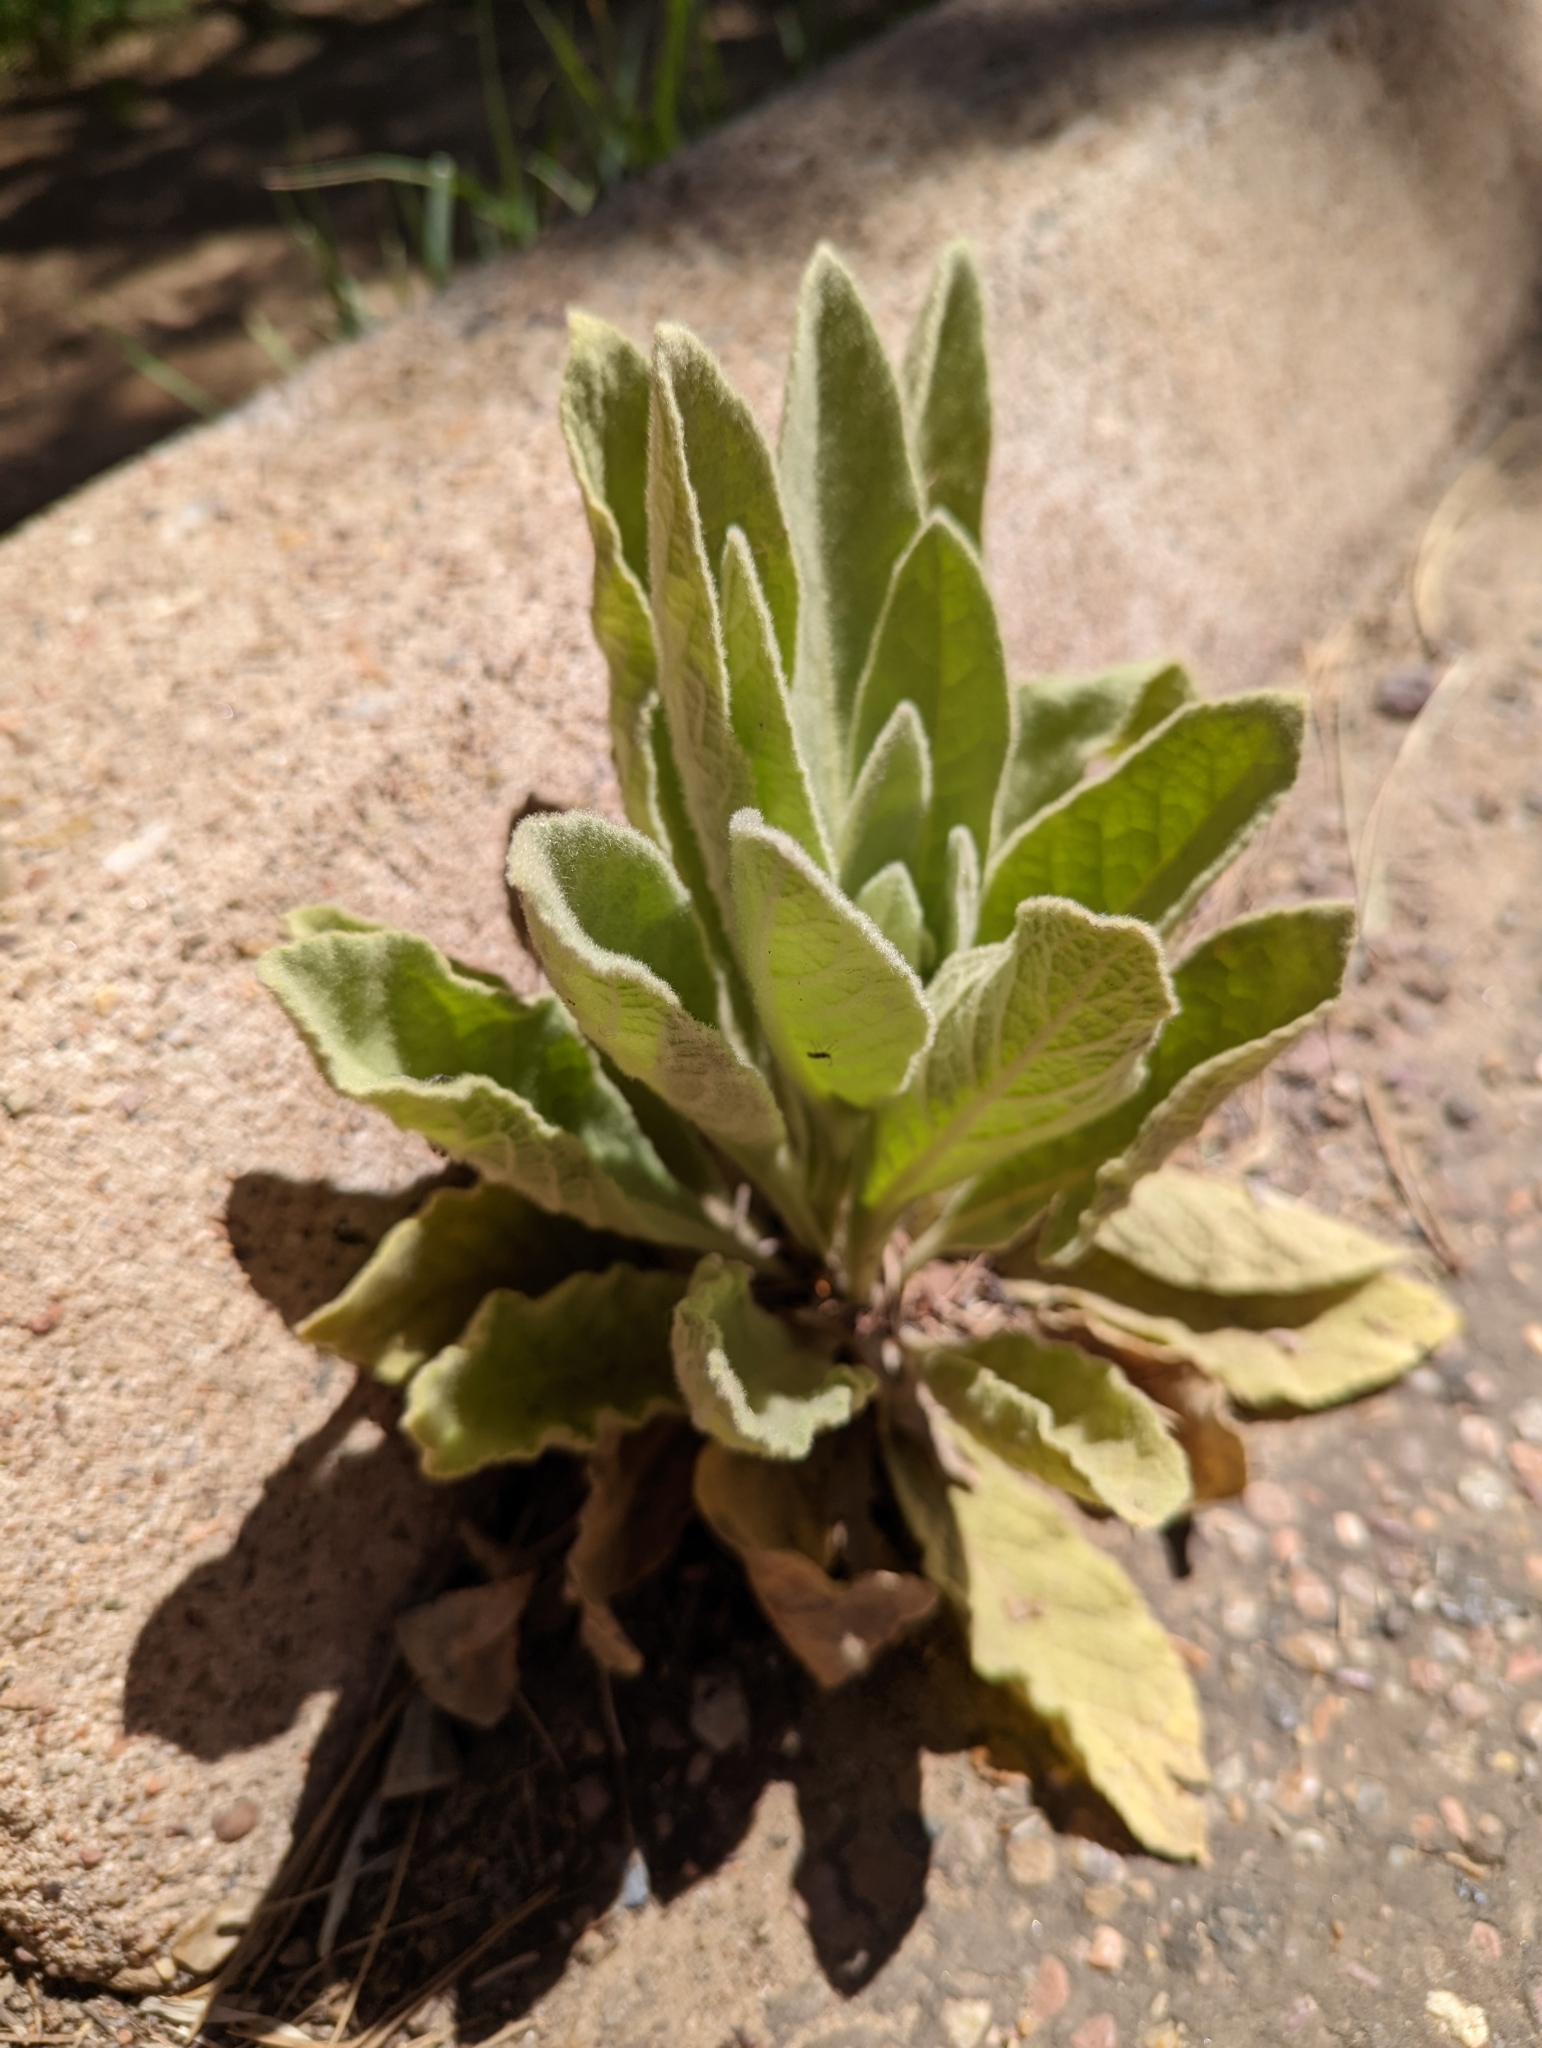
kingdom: Plantae
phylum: Tracheophyta
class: Magnoliopsida
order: Lamiales
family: Scrophulariaceae
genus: Verbascum
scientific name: Verbascum thapsus
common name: Common mullein
